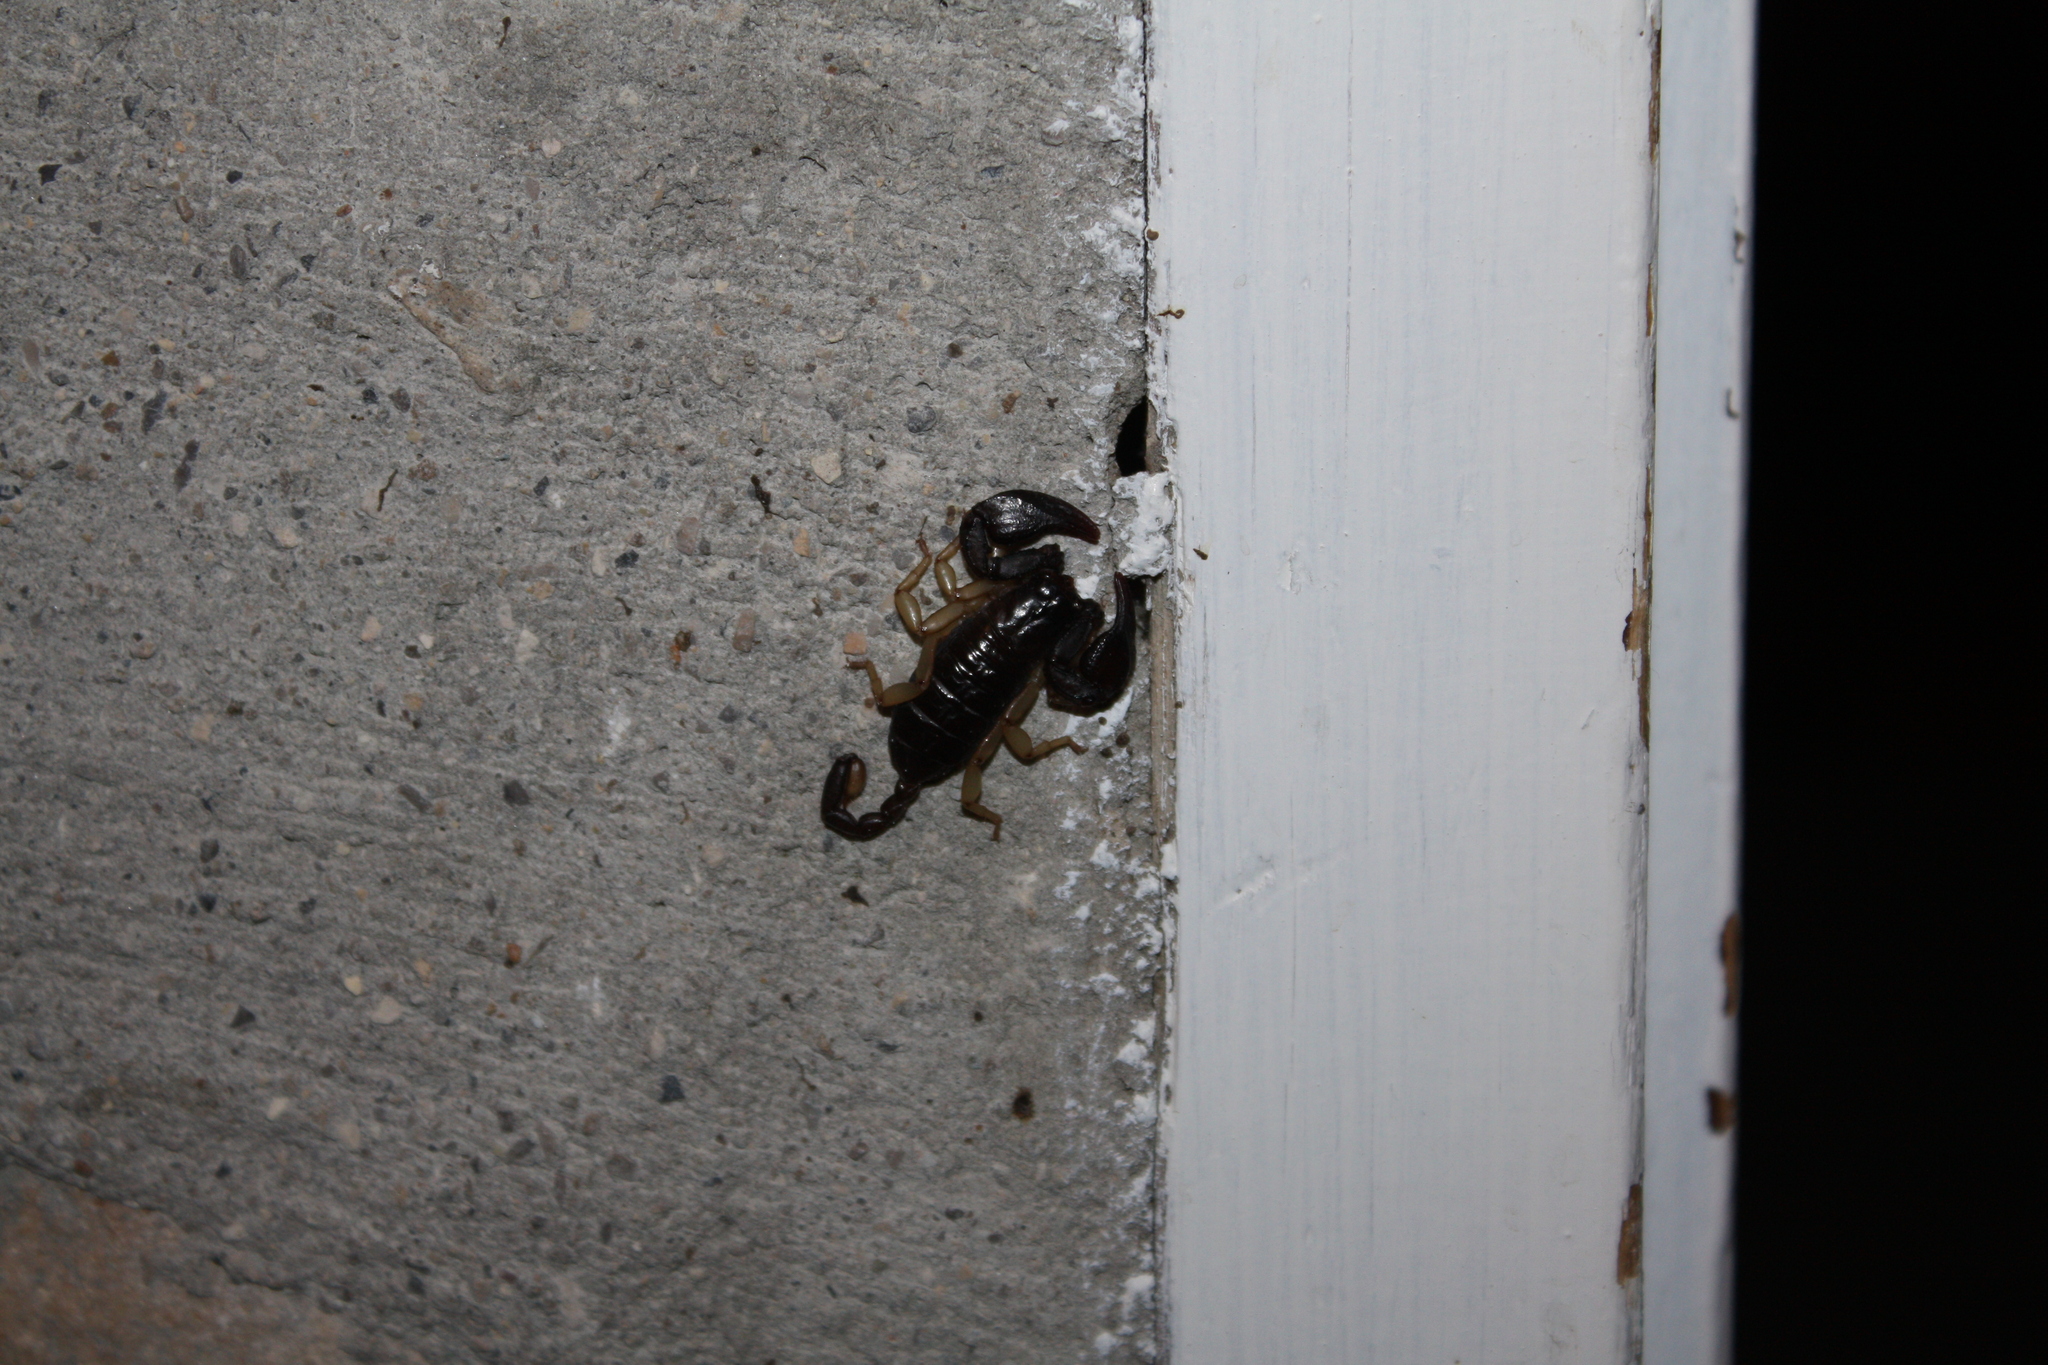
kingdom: Animalia
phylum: Arthropoda
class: Arachnida
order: Scorpiones
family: Euscorpiidae
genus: Euscorpius
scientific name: Euscorpius
